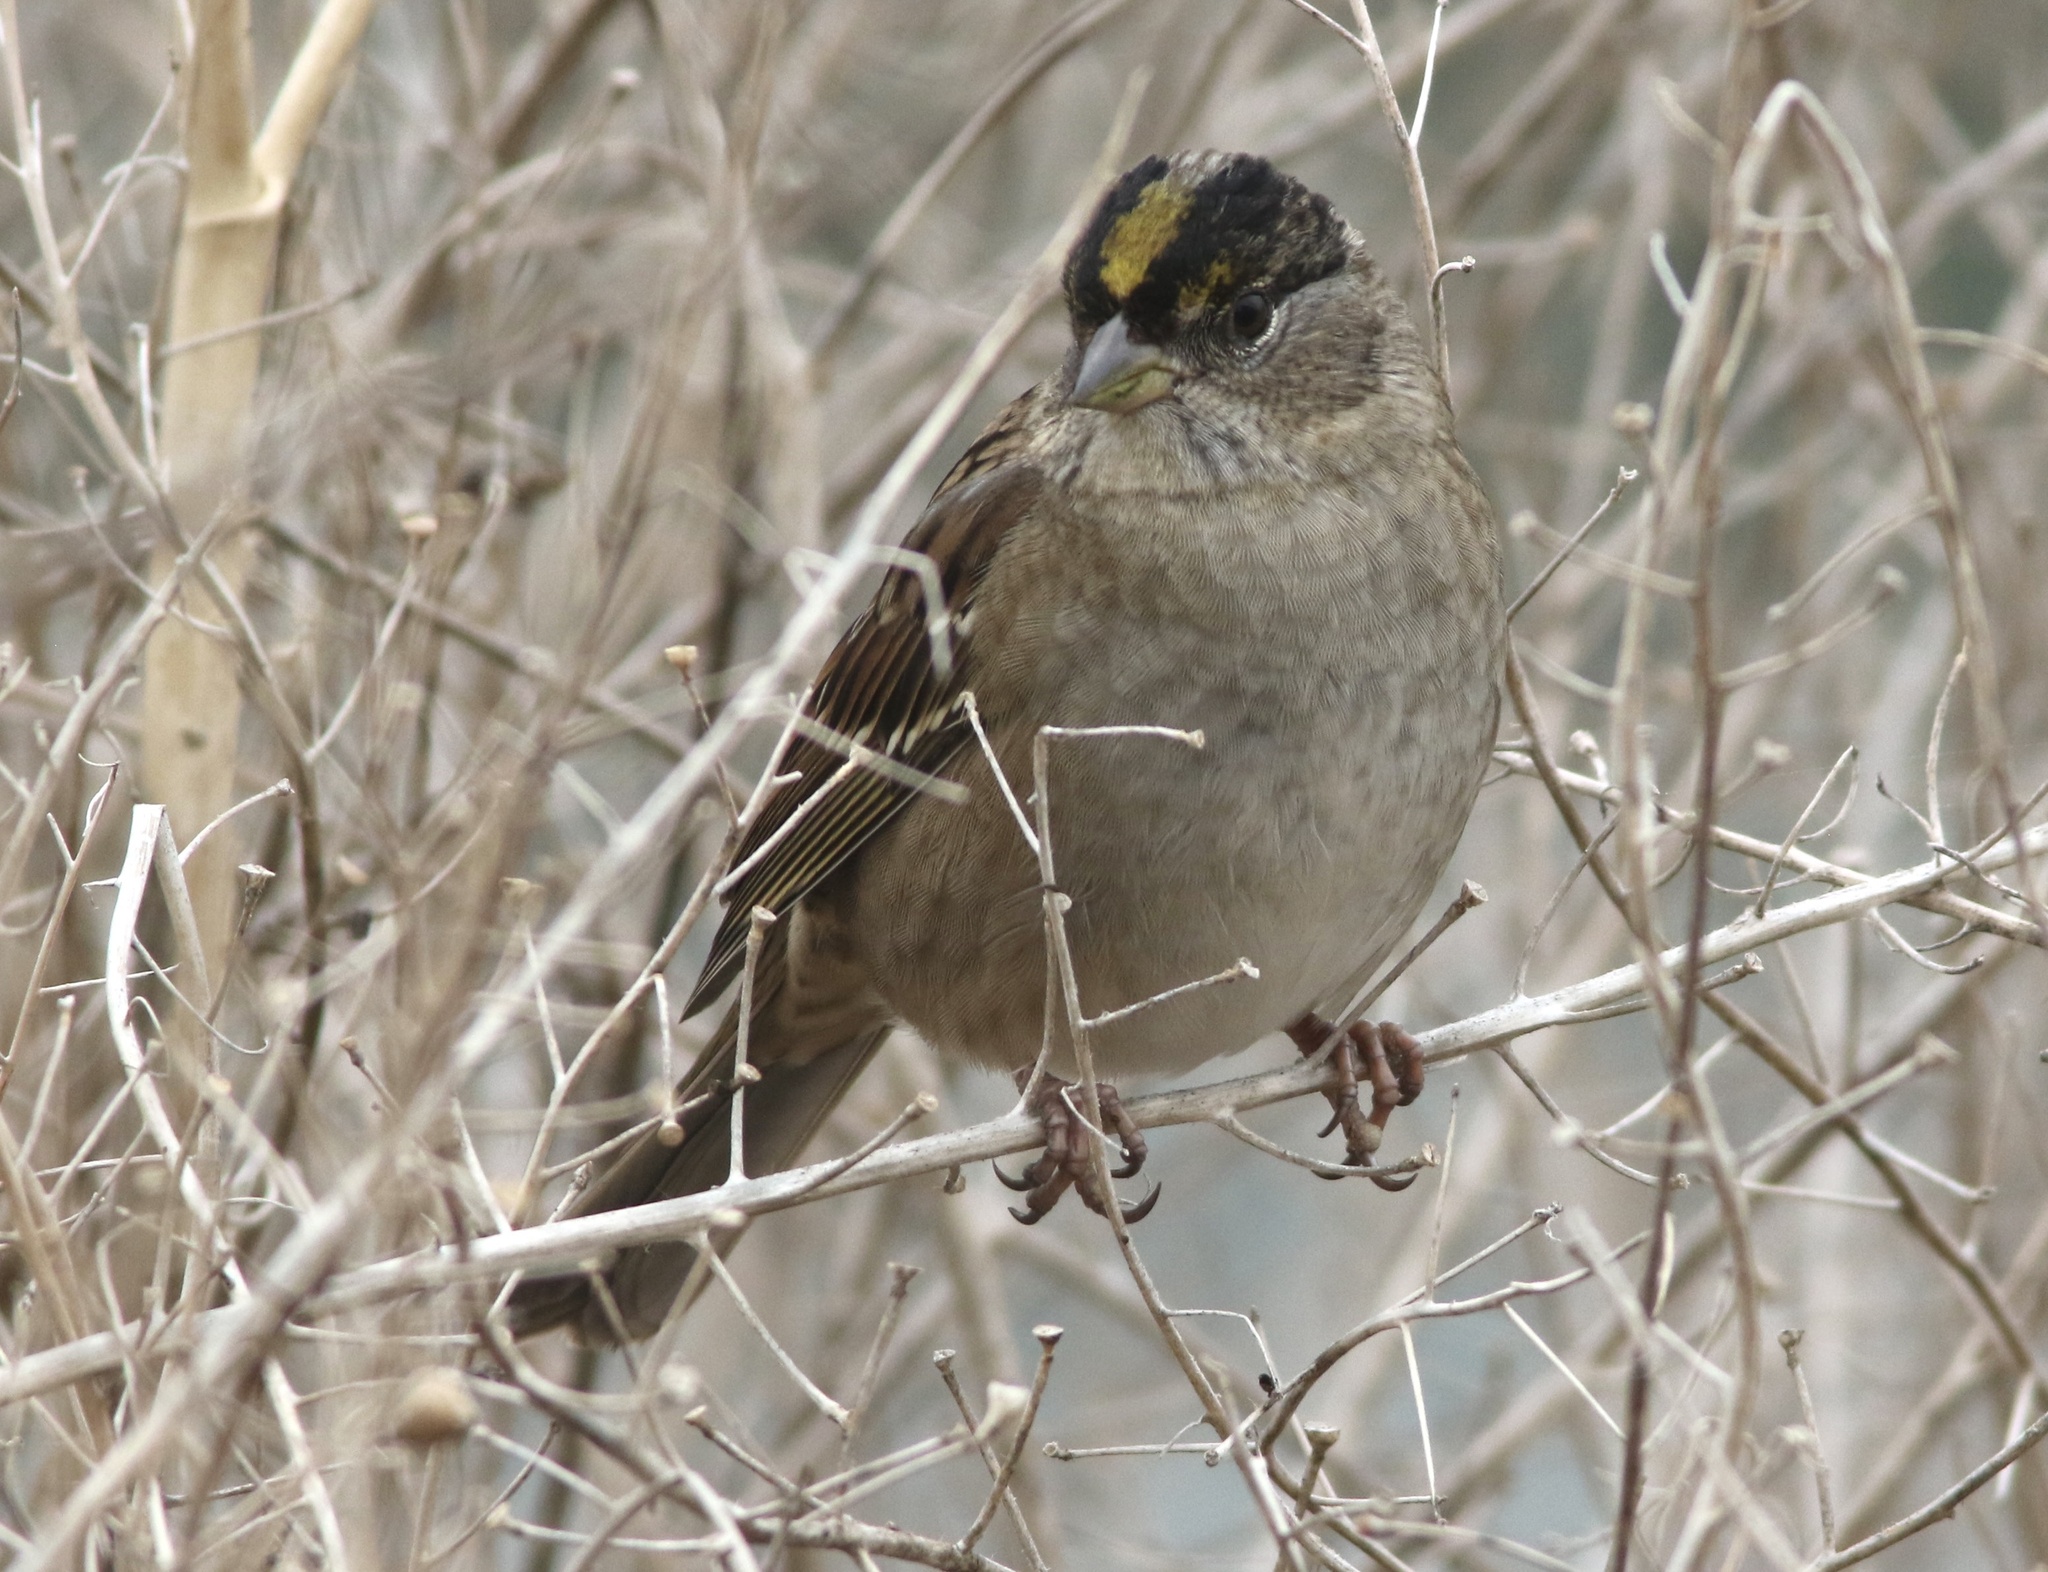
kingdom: Animalia
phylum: Chordata
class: Aves
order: Passeriformes
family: Passerellidae
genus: Zonotrichia
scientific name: Zonotrichia atricapilla
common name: Golden-crowned sparrow
